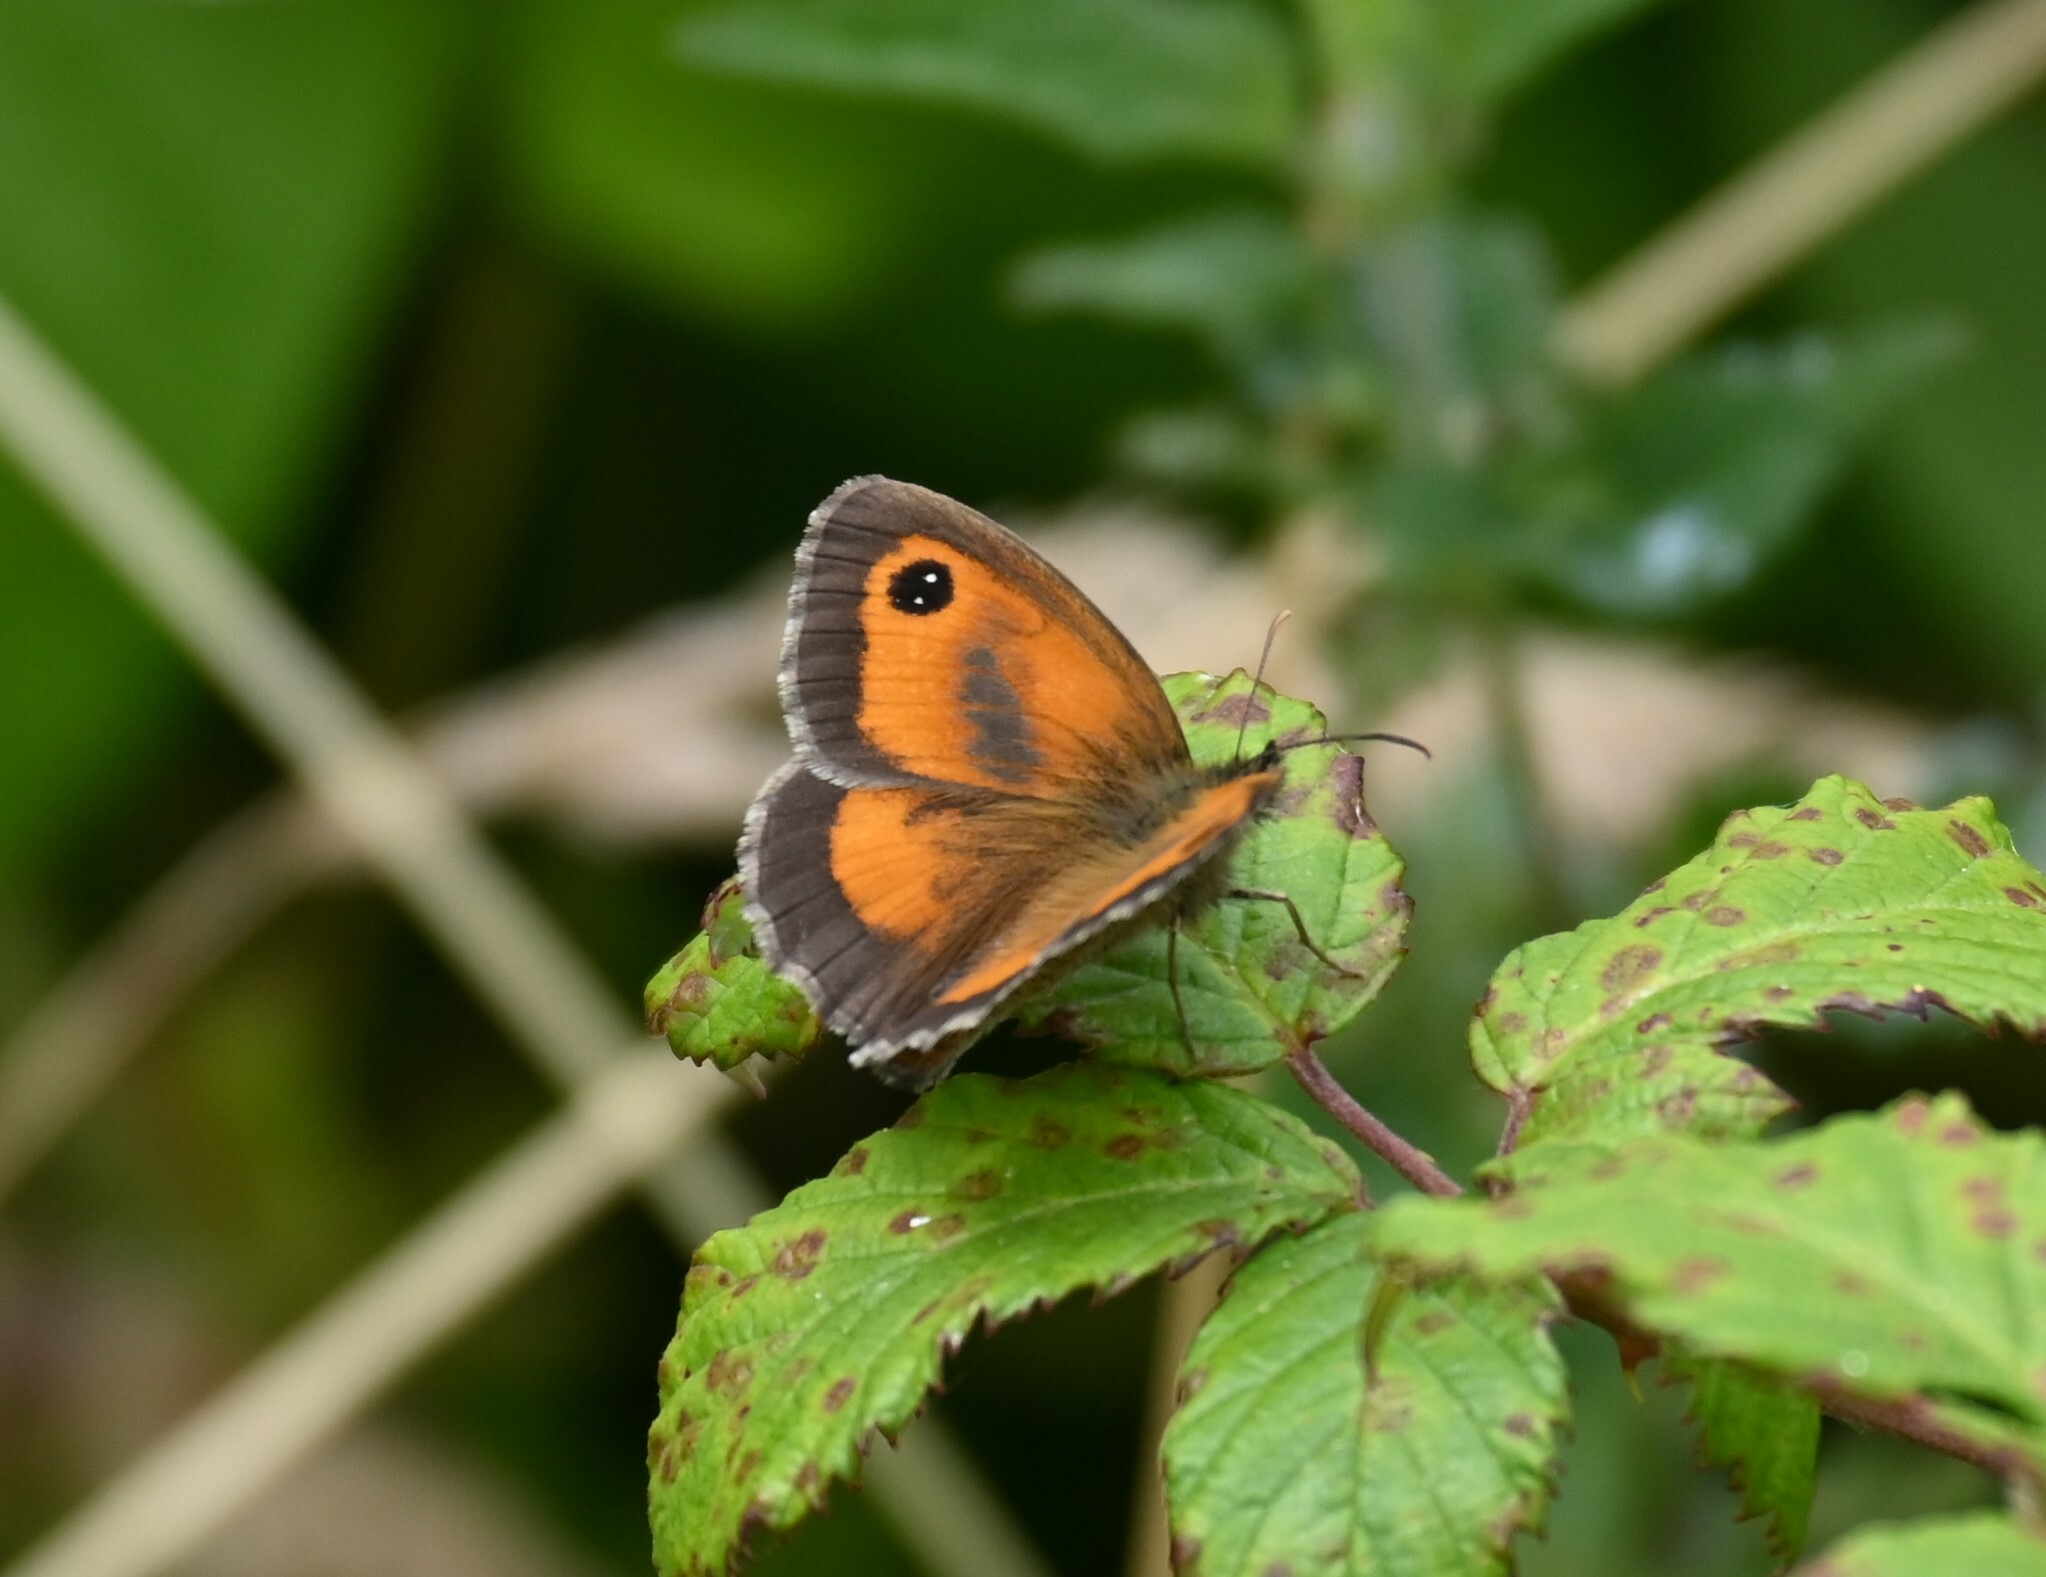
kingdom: Animalia
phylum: Arthropoda
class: Insecta
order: Lepidoptera
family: Nymphalidae
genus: Pyronia
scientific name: Pyronia tithonus
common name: Gatekeeper
